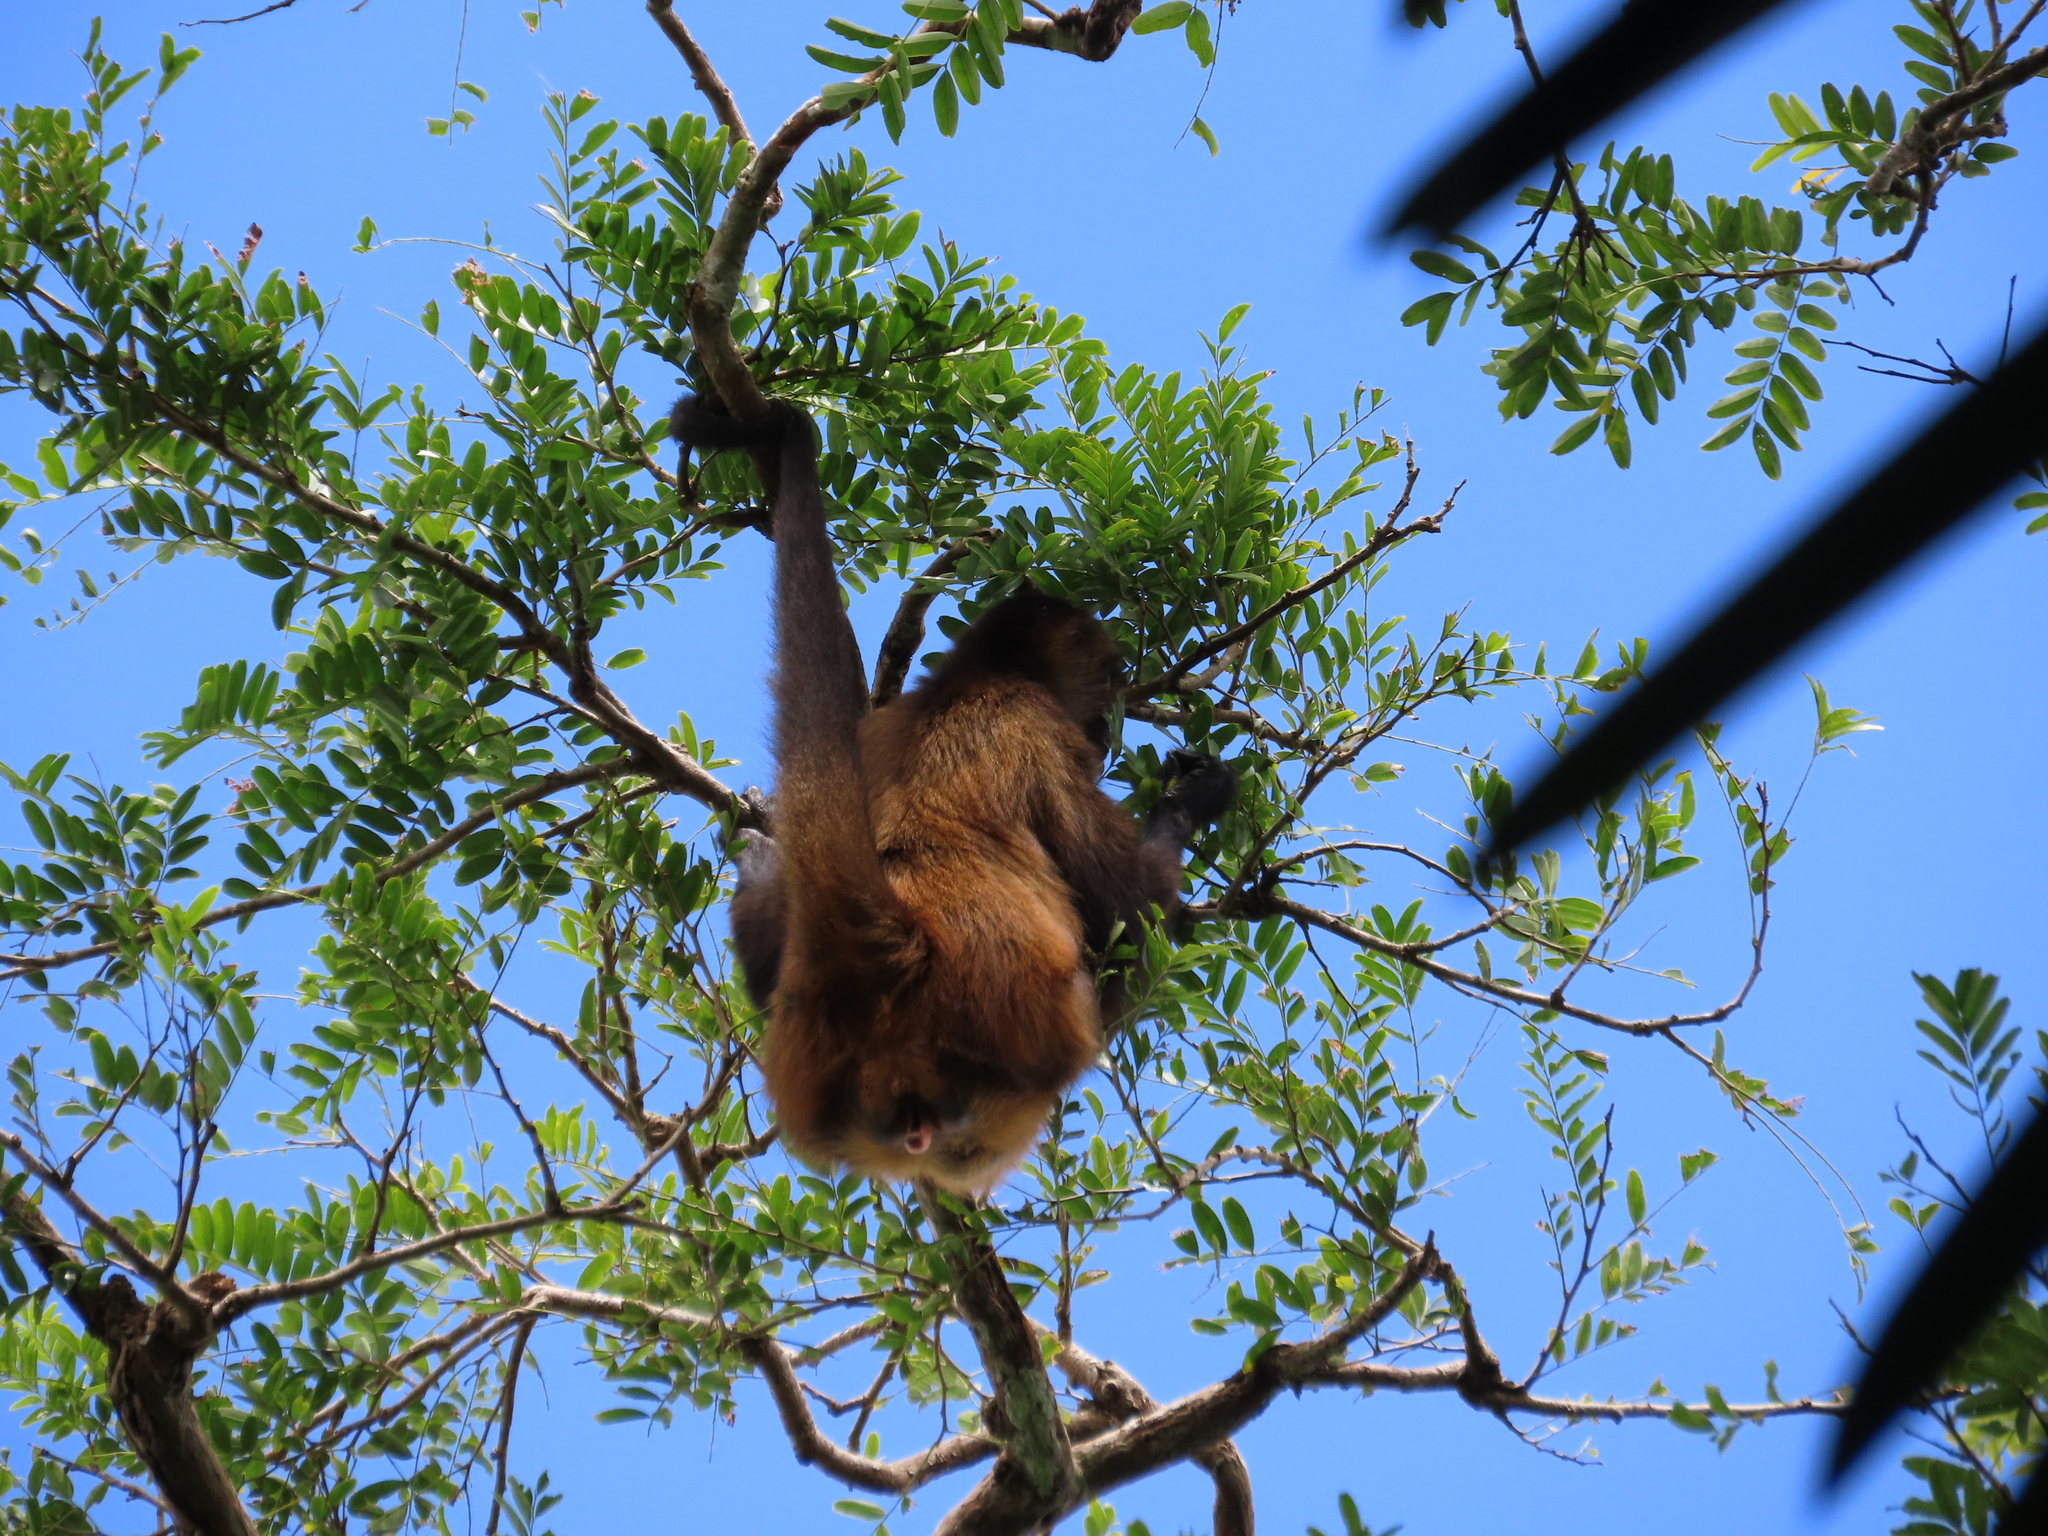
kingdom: Animalia
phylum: Chordata
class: Mammalia
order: Primates
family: Atelidae
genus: Ateles
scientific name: Ateles geoffroyi
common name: Black-handed spider monkey
